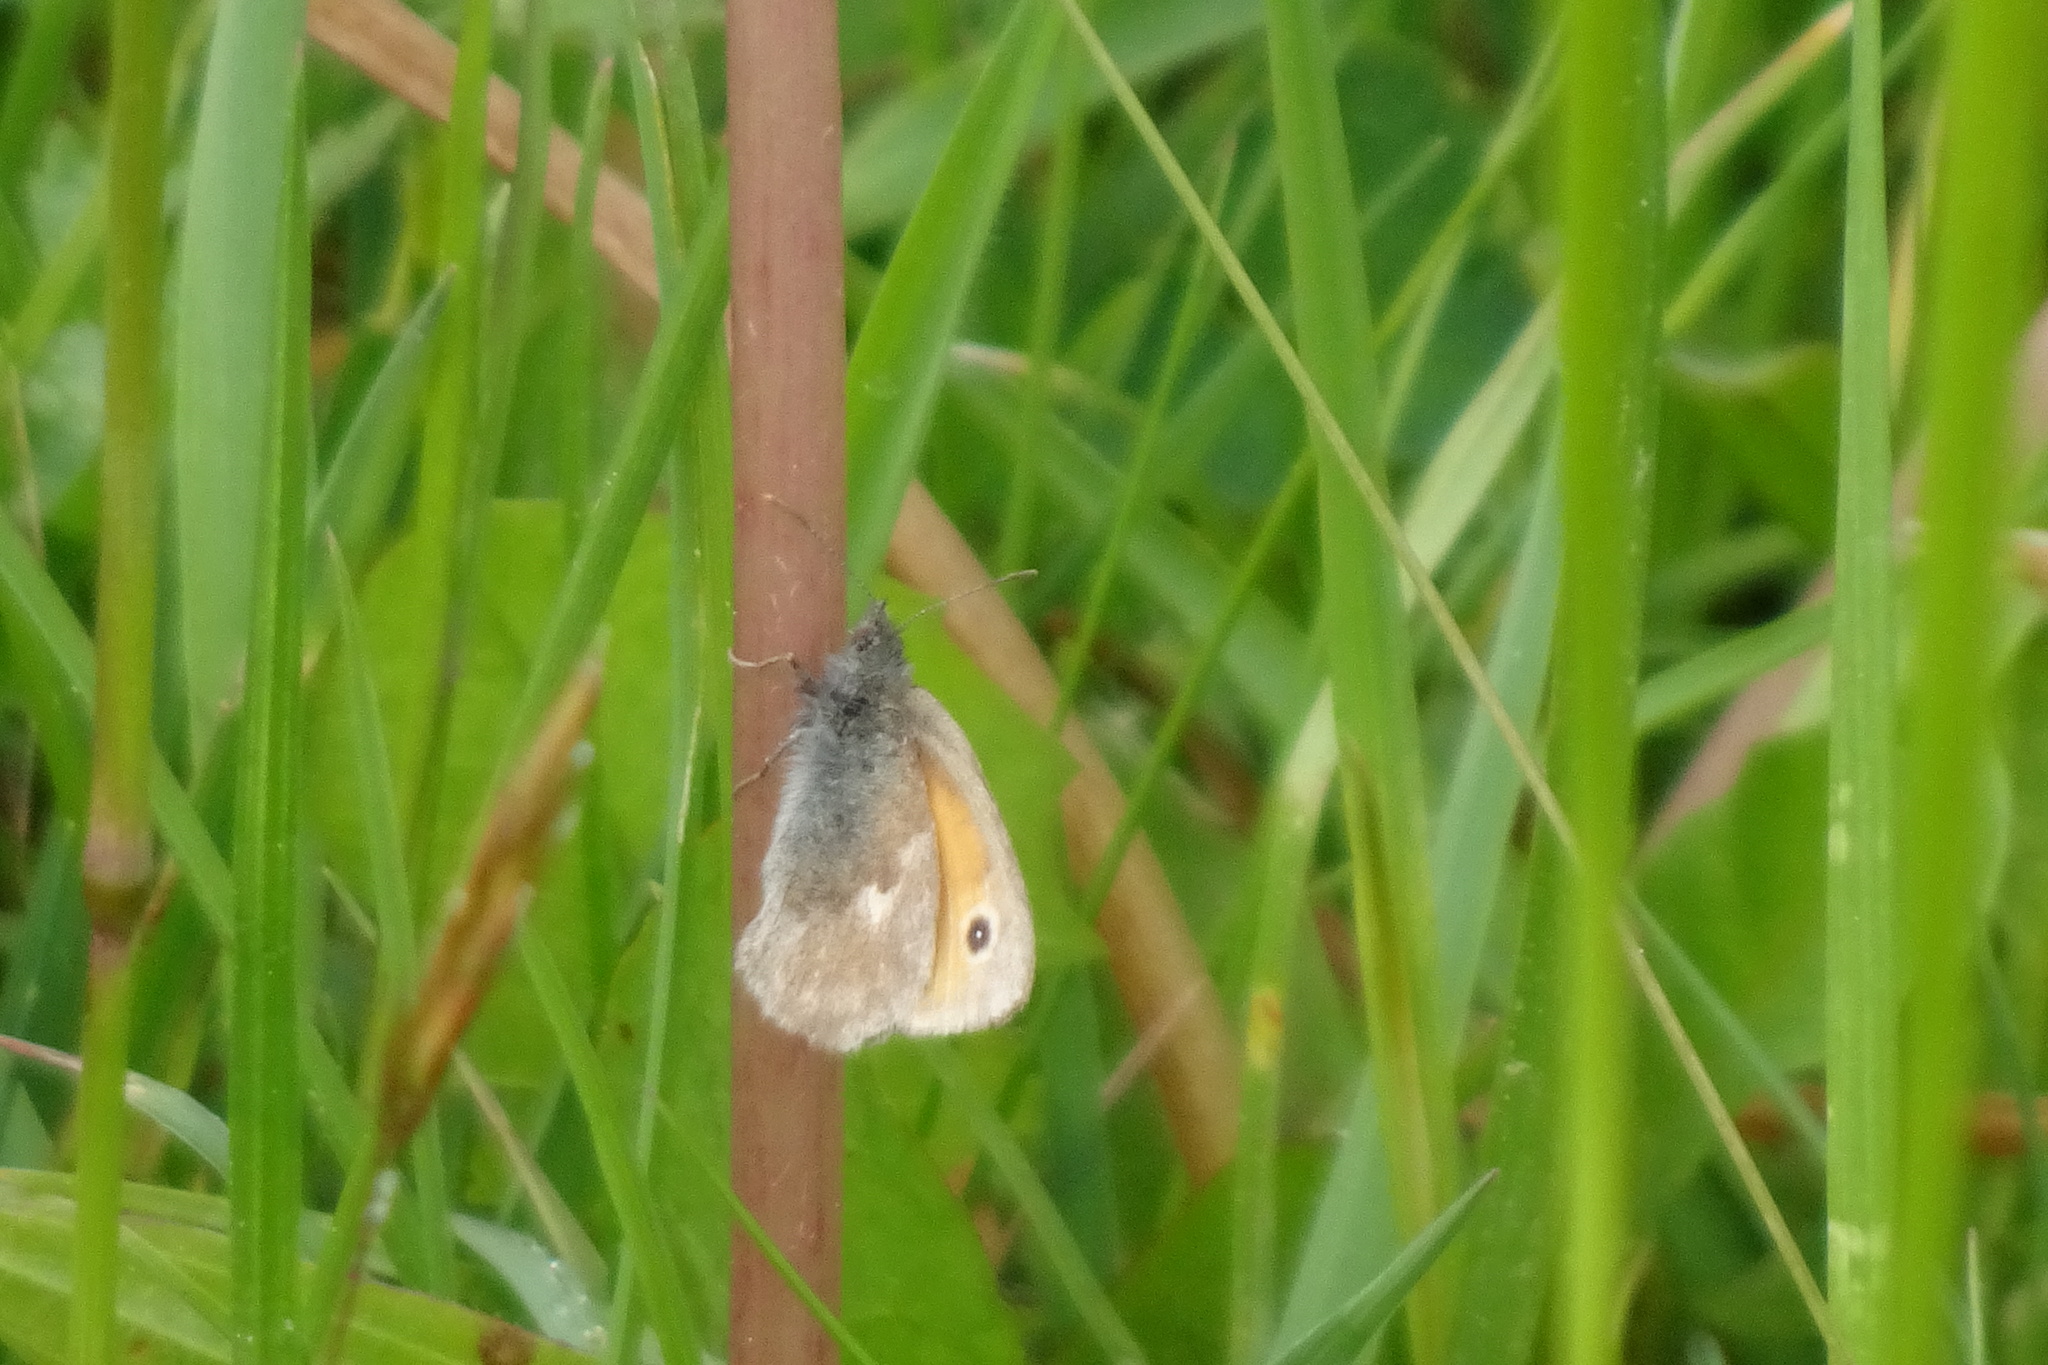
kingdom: Animalia
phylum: Arthropoda
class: Insecta
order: Lepidoptera
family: Nymphalidae
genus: Coenonympha
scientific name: Coenonympha pamphilus
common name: Small heath
